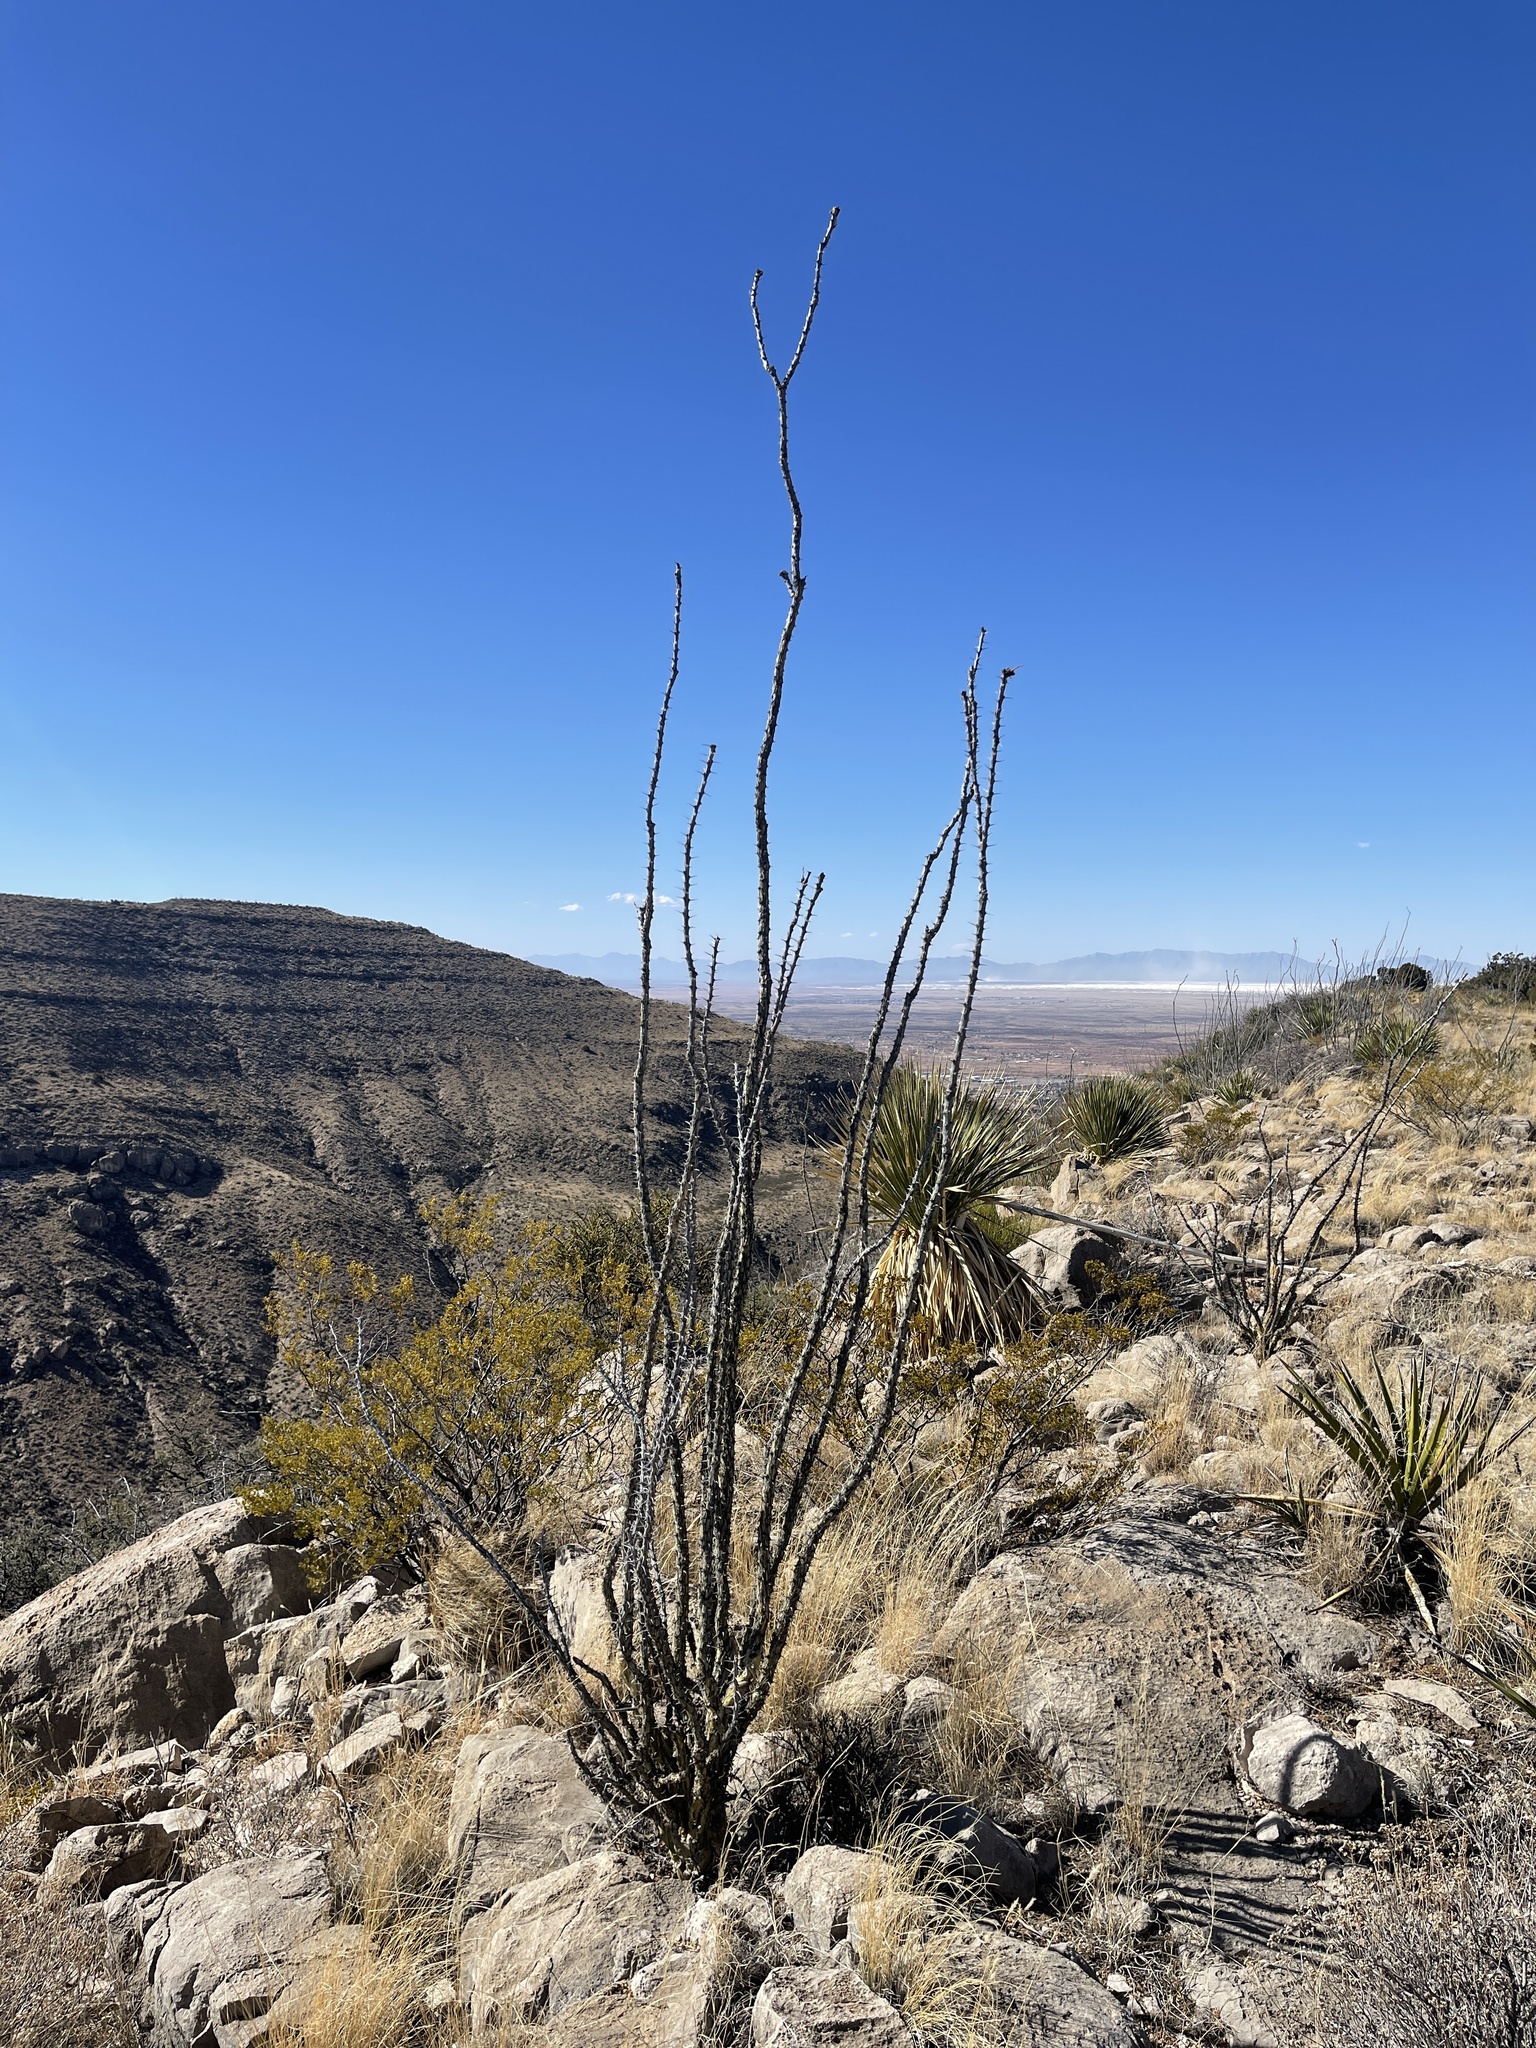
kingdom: Plantae
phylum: Tracheophyta
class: Magnoliopsida
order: Ericales
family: Fouquieriaceae
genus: Fouquieria
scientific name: Fouquieria splendens
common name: Vine-cactus
